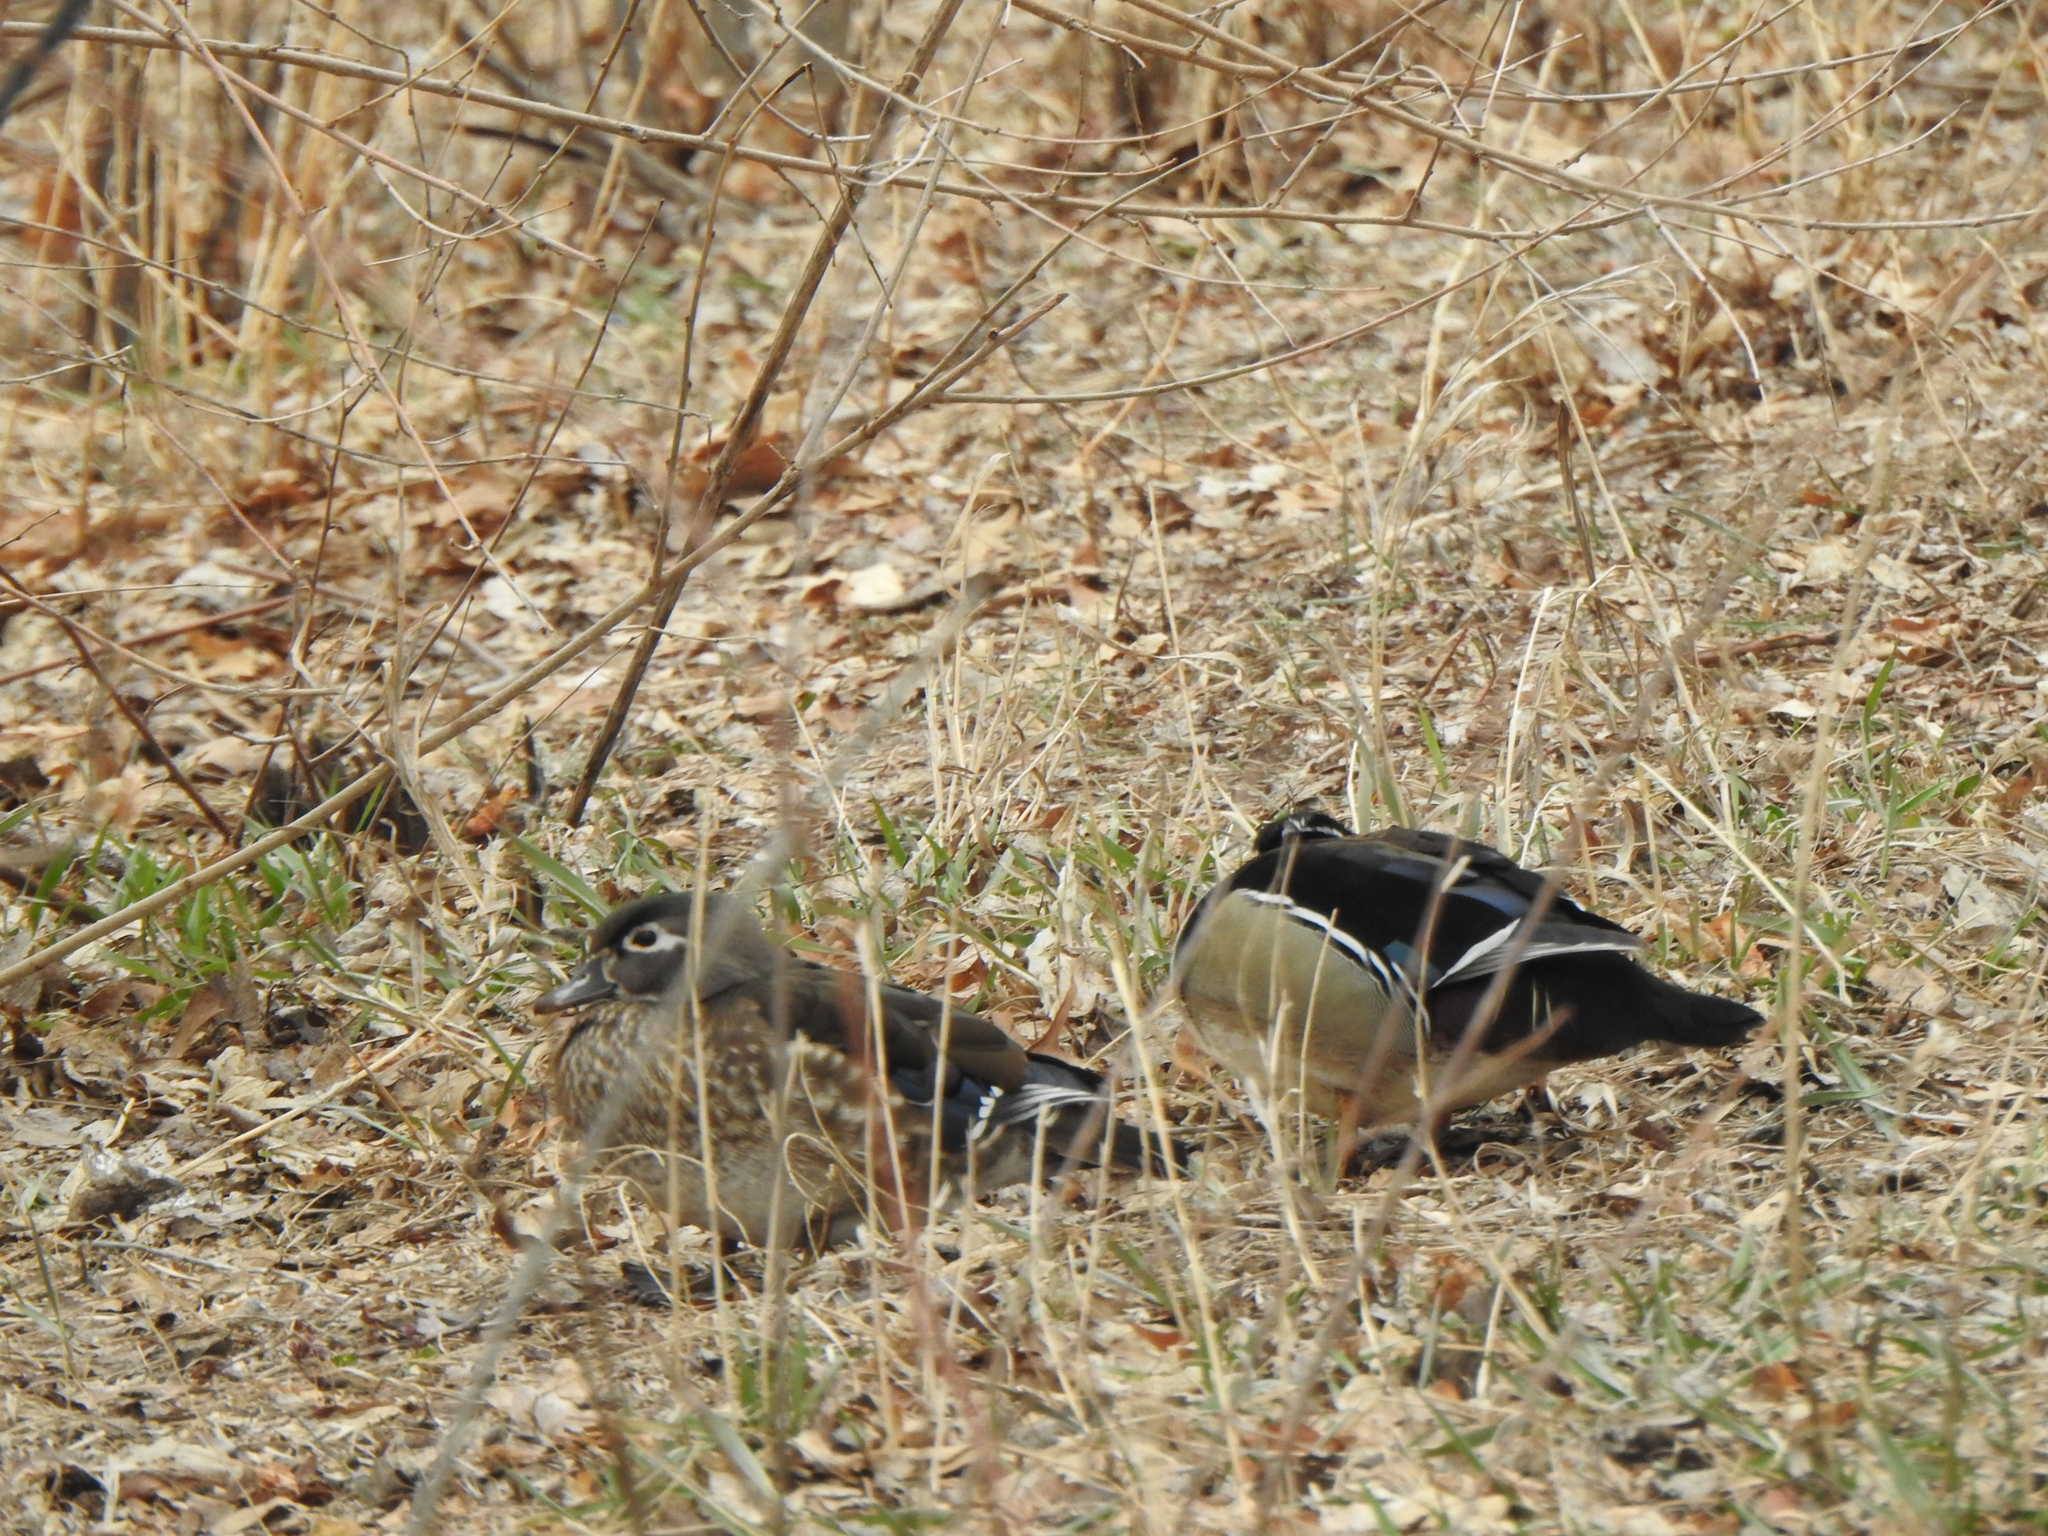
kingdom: Animalia
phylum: Chordata
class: Aves
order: Anseriformes
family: Anatidae
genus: Aix
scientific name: Aix sponsa
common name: Wood duck
